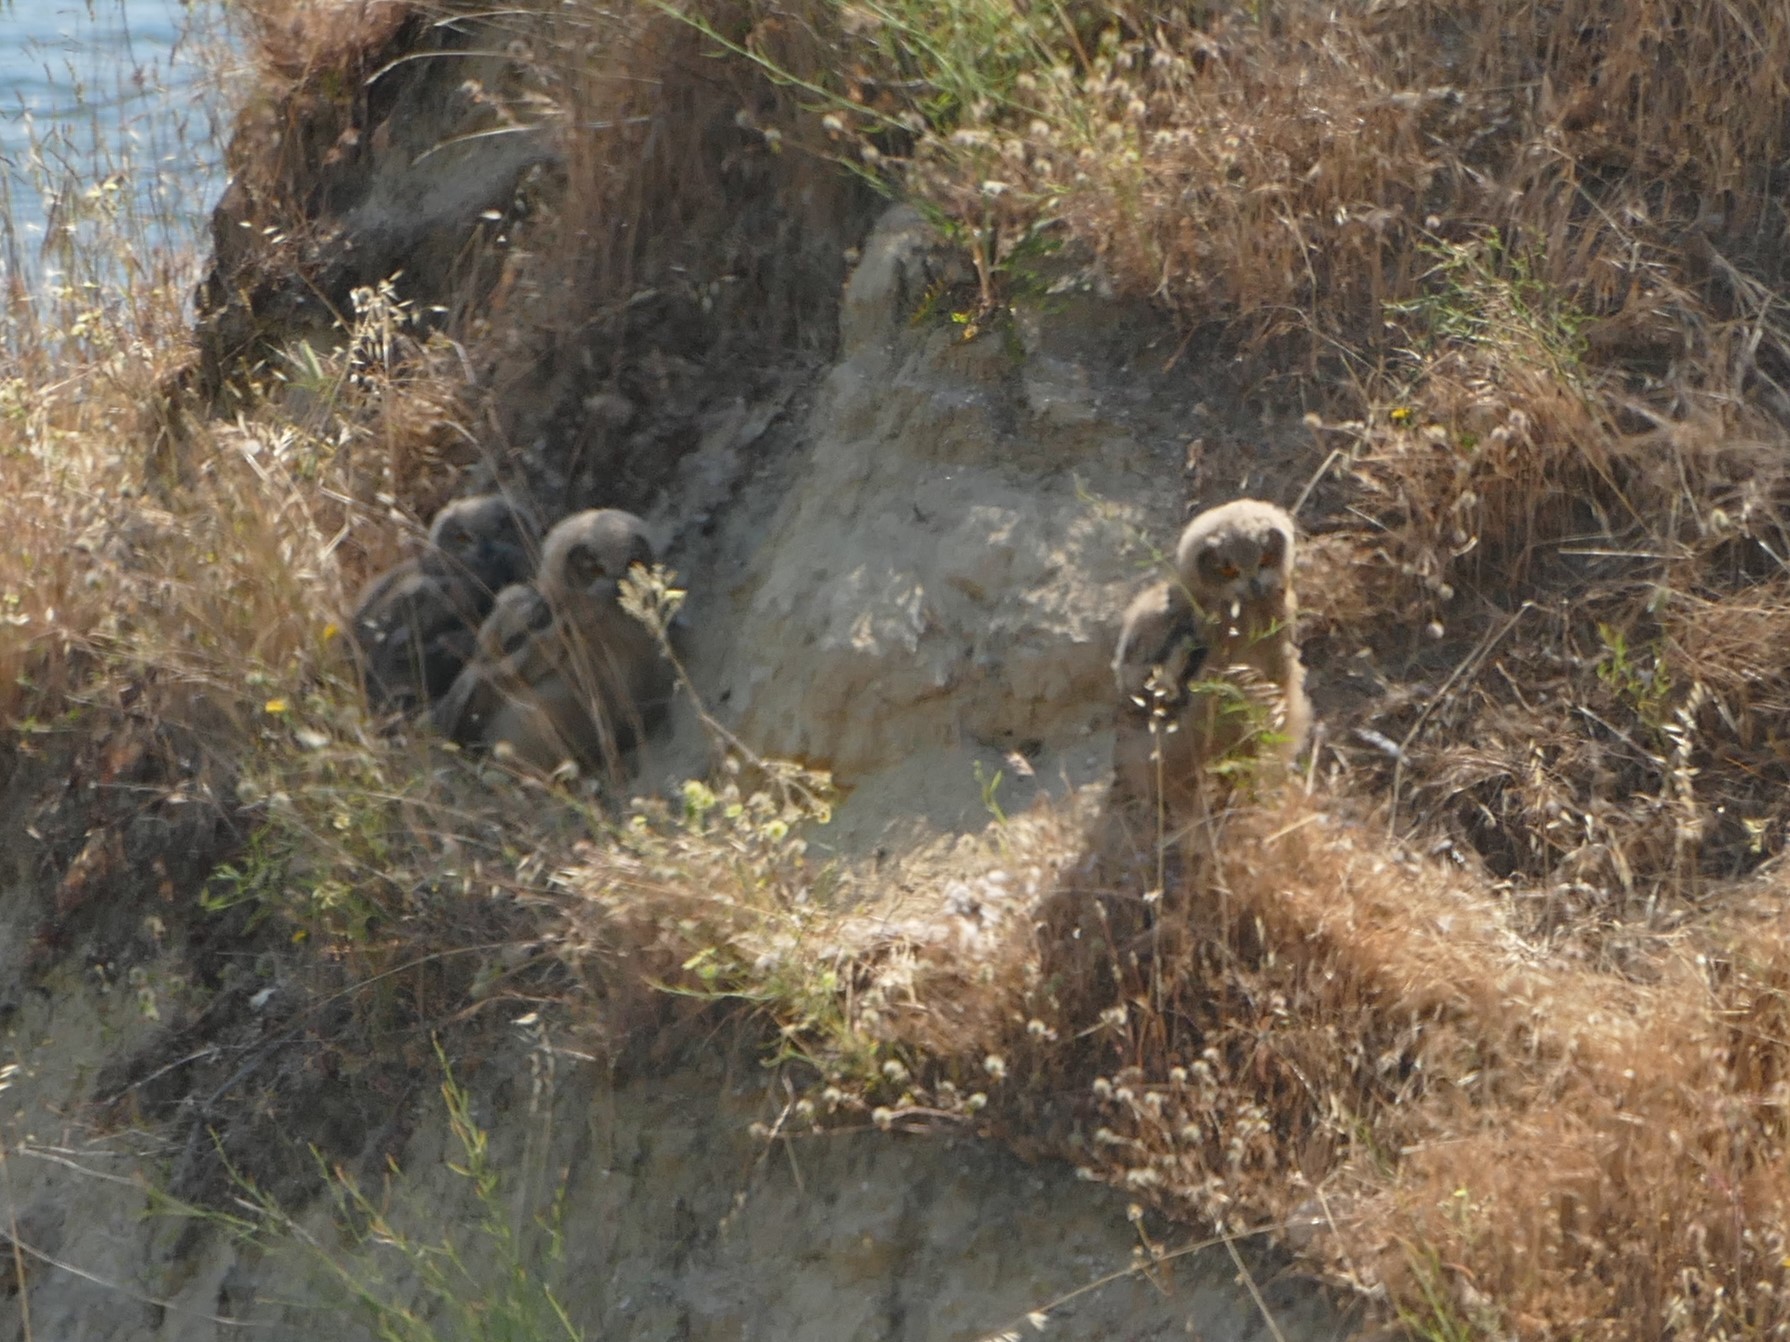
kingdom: Animalia
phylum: Chordata
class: Aves
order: Strigiformes
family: Strigidae
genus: Bubo
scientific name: Bubo bubo
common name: Eurasian eagle-owl
